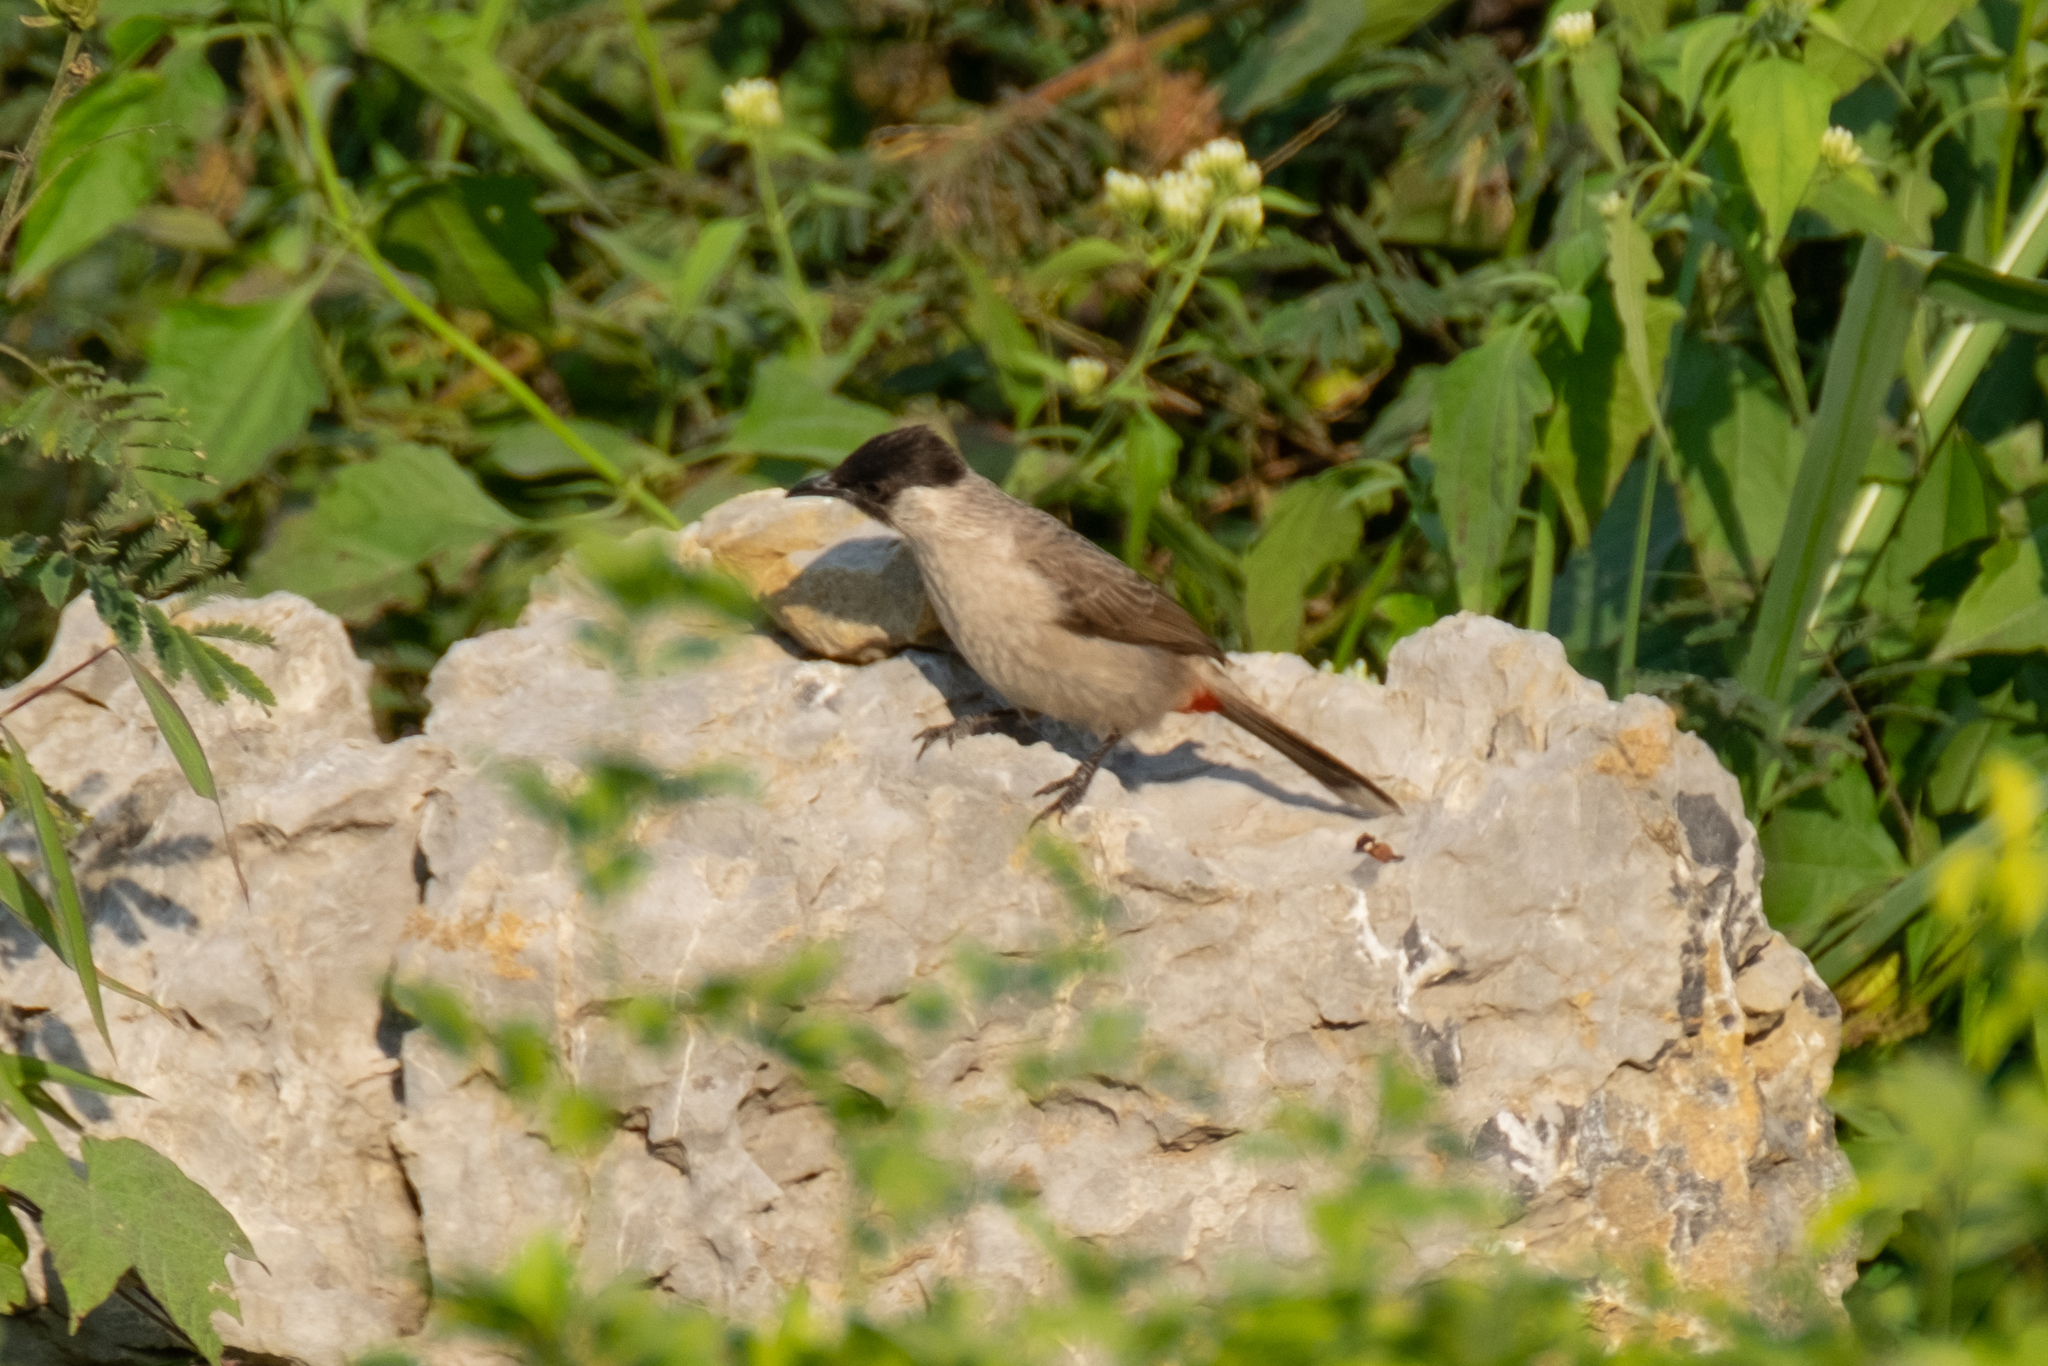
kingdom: Animalia
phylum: Chordata
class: Aves
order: Passeriformes
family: Pycnonotidae
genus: Pycnonotus
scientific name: Pycnonotus aurigaster
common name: Sooty-headed bulbul
